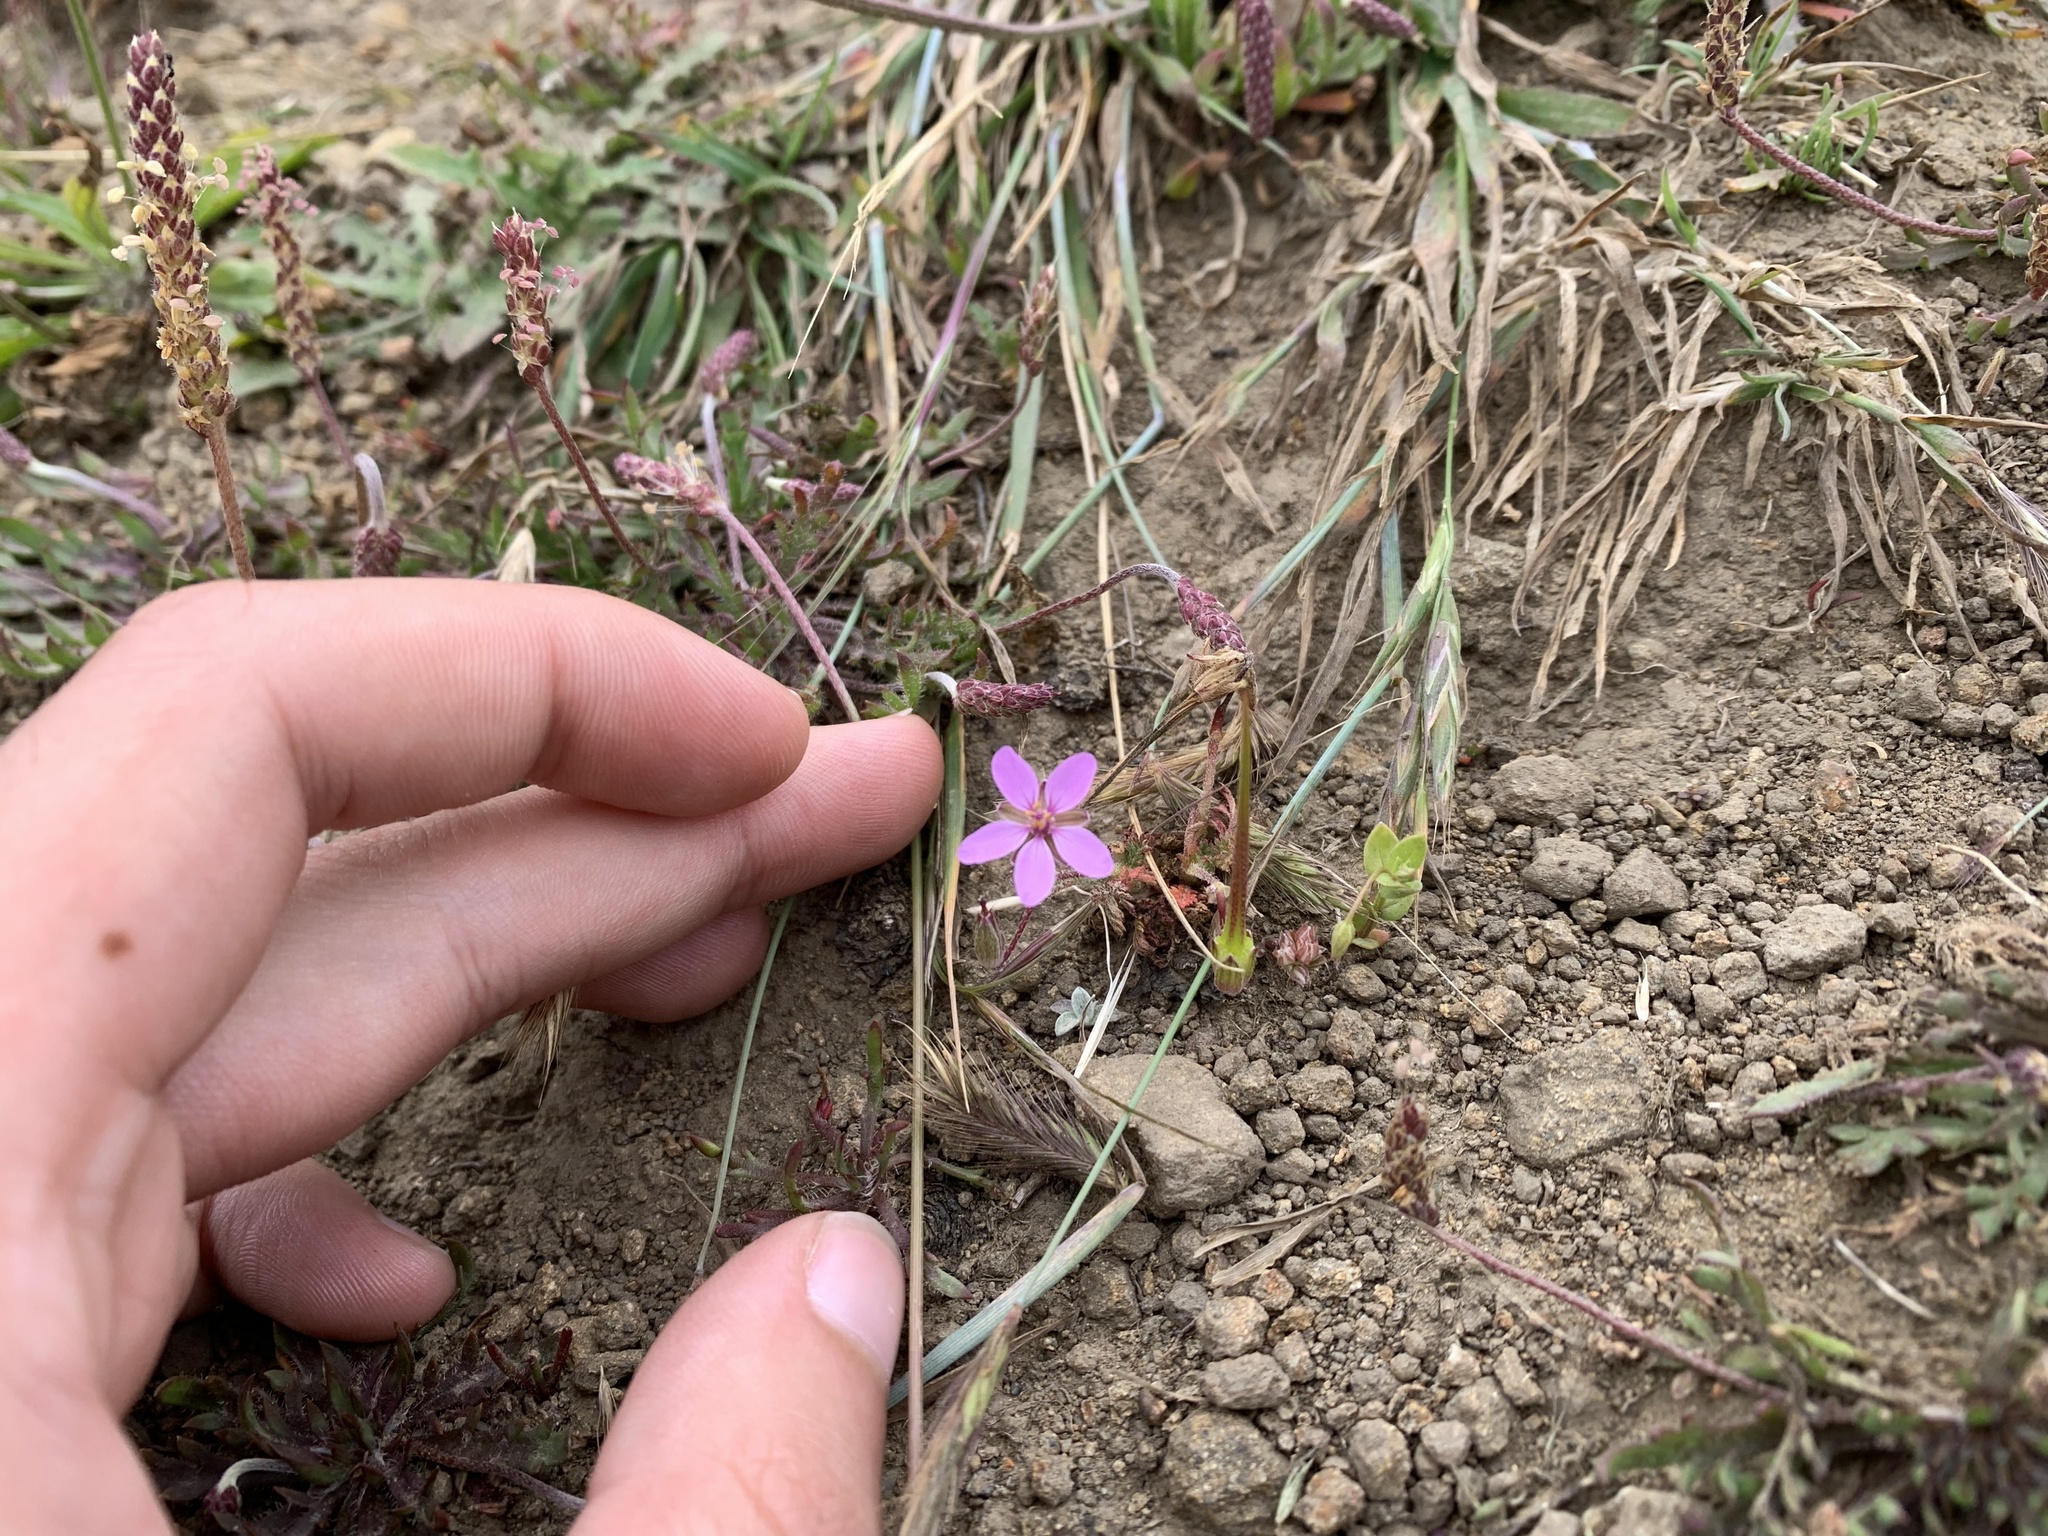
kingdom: Plantae
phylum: Tracheophyta
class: Magnoliopsida
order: Geraniales
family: Geraniaceae
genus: Erodium
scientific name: Erodium cicutarium
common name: Common stork's-bill
